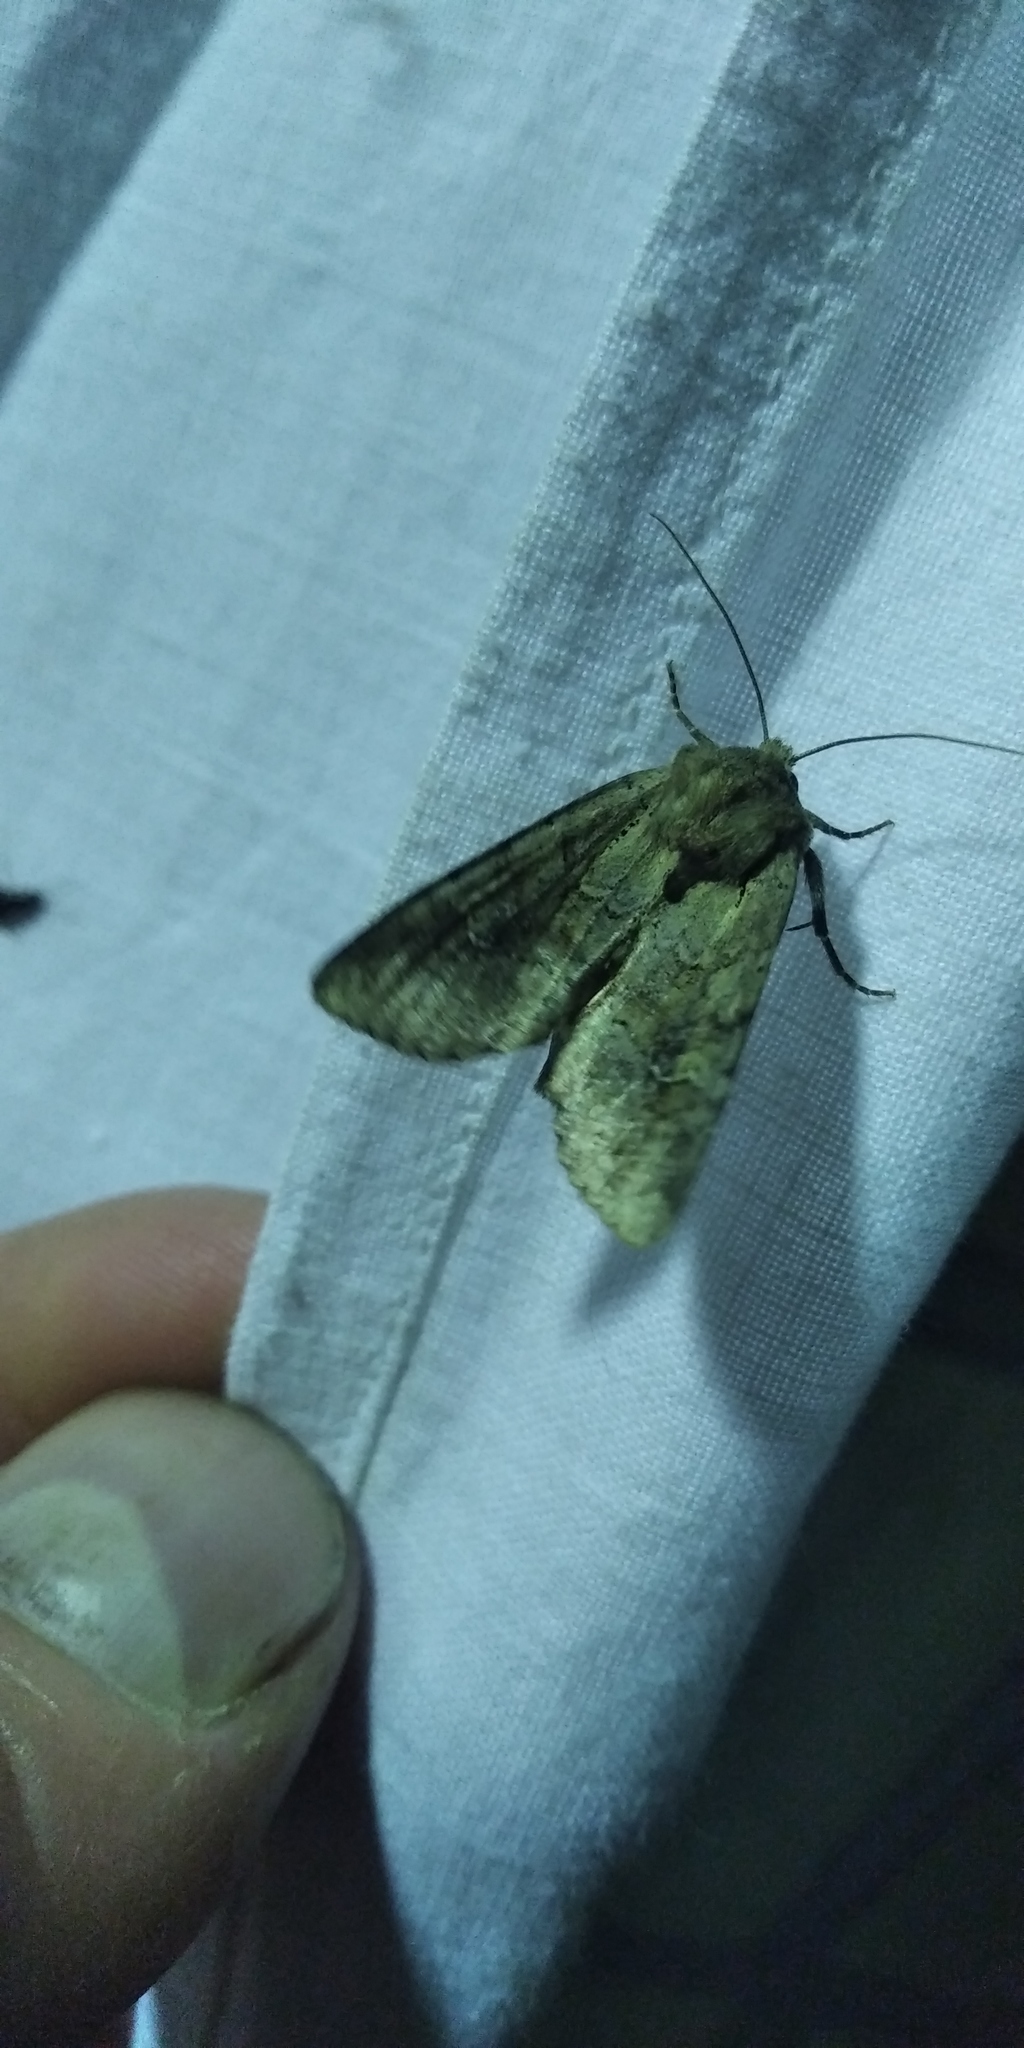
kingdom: Animalia
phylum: Arthropoda
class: Insecta
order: Lepidoptera
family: Noctuidae
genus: Apamea
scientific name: Apamea sordens
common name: Rustic shoulder-knot
